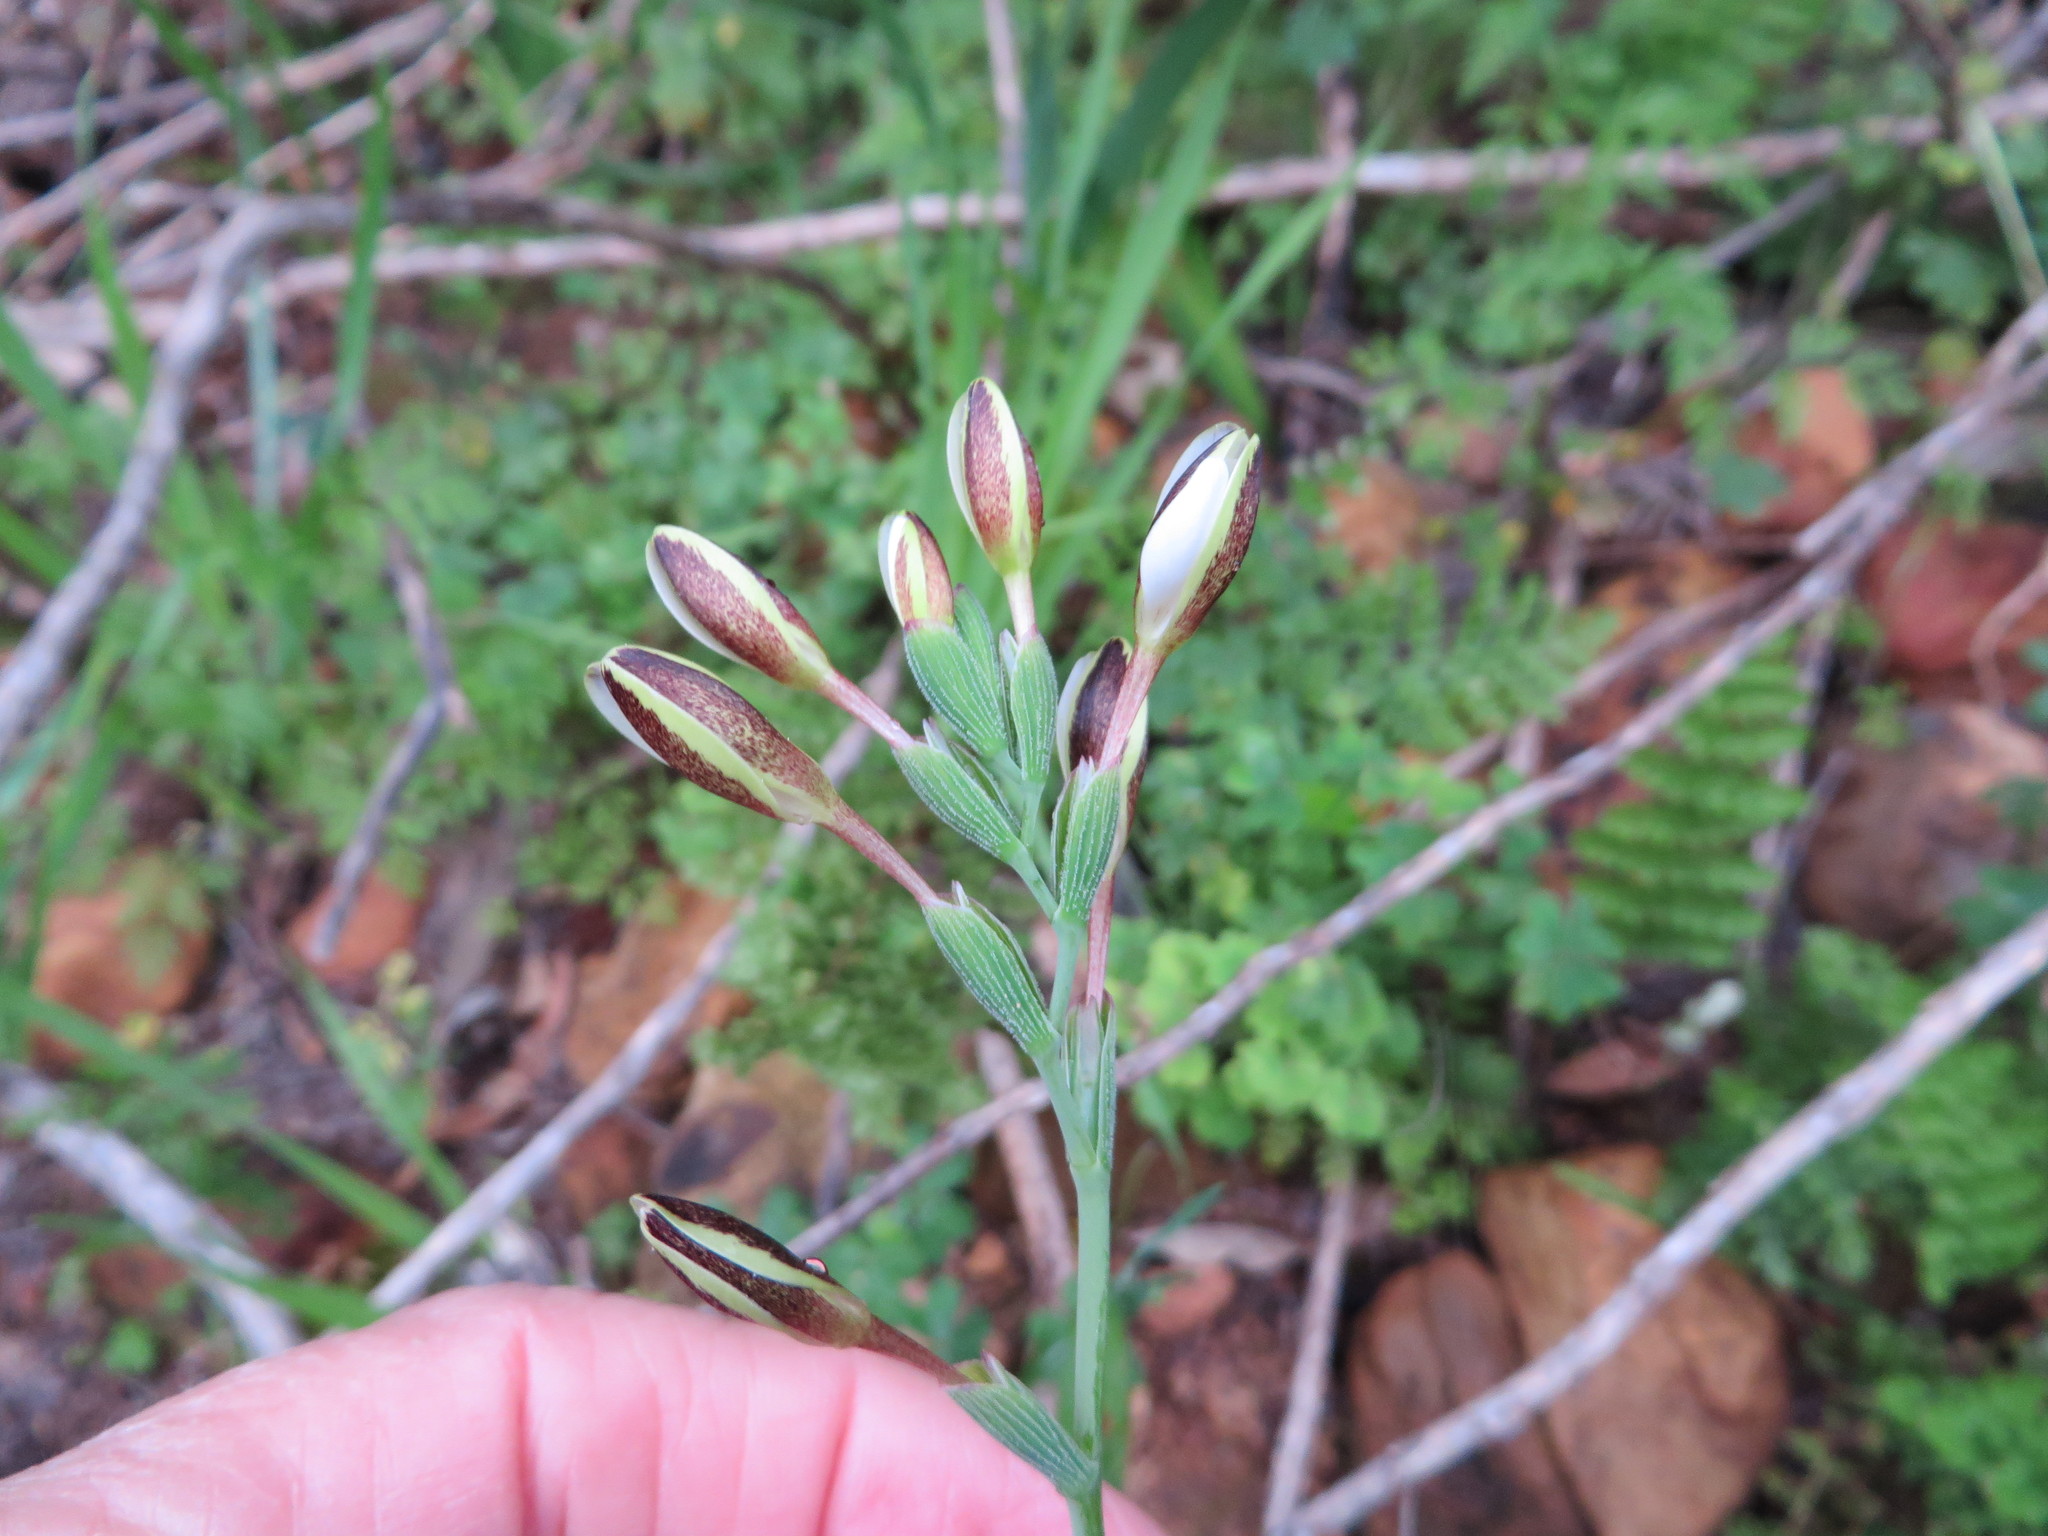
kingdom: Plantae
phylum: Tracheophyta
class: Liliopsida
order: Asparagales
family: Iridaceae
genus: Hesperantha
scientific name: Hesperantha falcata
